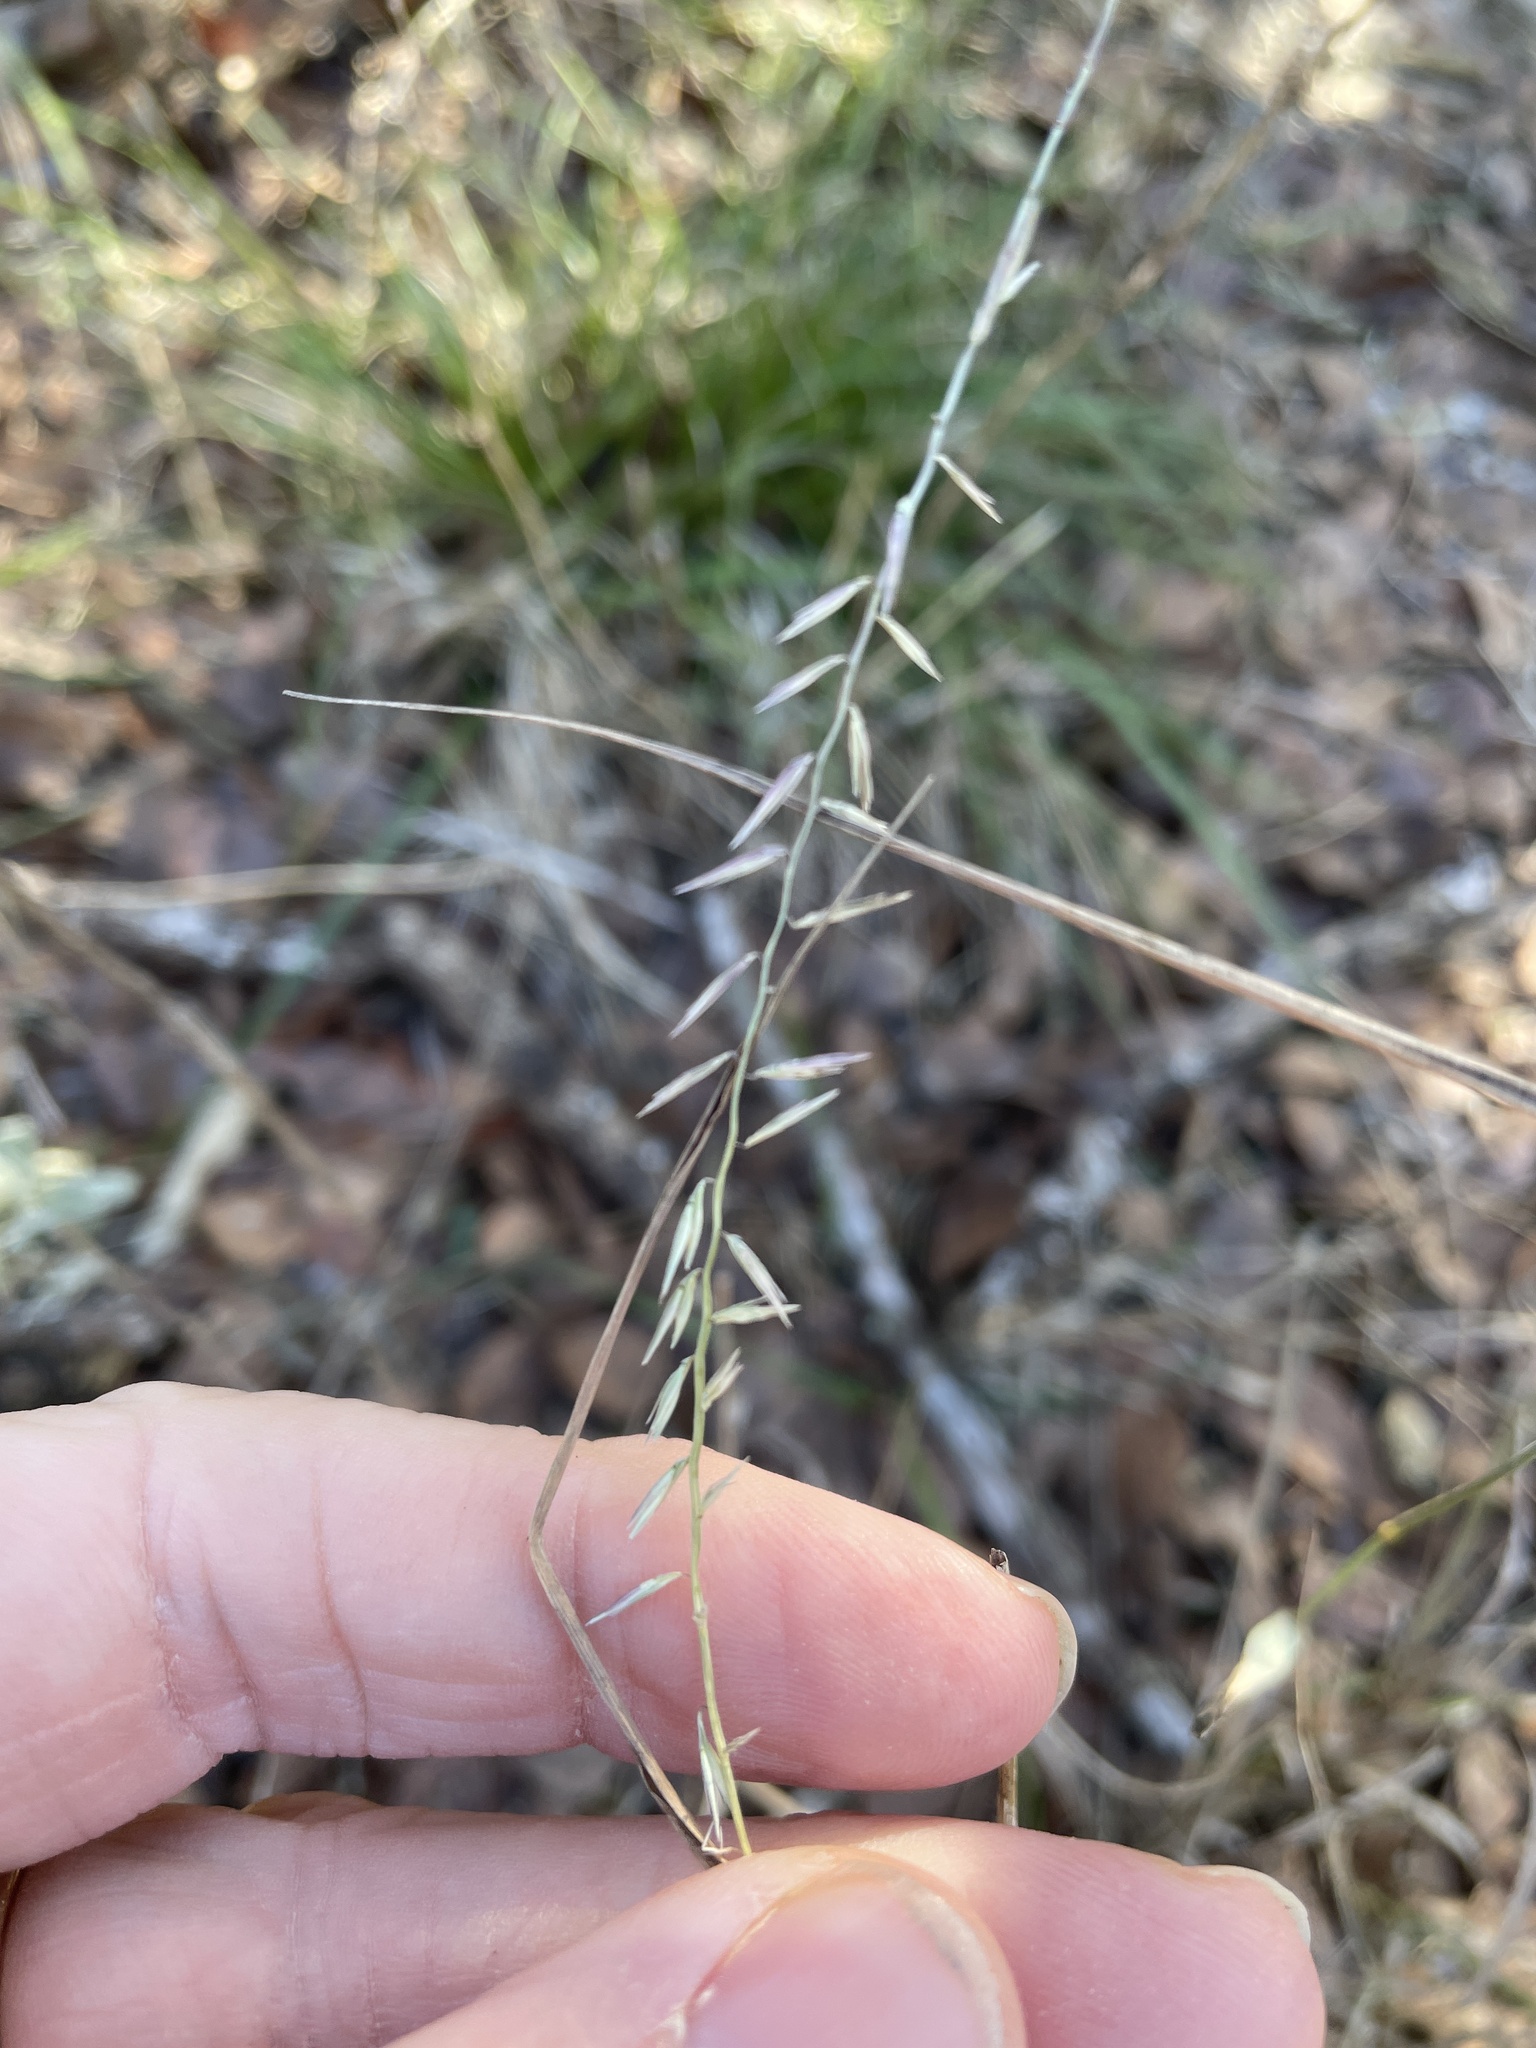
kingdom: Plantae
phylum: Tracheophyta
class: Liliopsida
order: Poales
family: Poaceae
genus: Bouteloua
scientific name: Bouteloua curtipendula
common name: Side-oats grama
